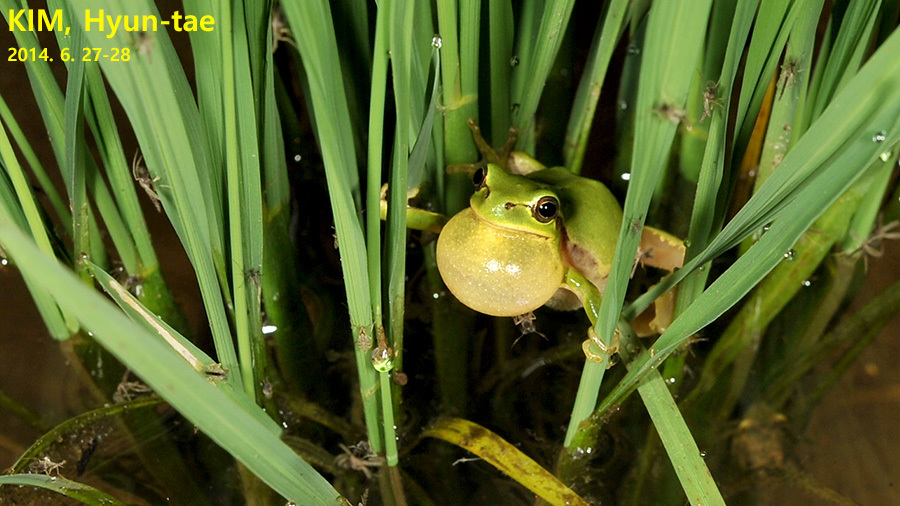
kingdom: Animalia
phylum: Chordata
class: Amphibia
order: Anura
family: Hylidae
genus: Dryophytes
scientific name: Dryophytes immaculatus
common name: North china treefrog
